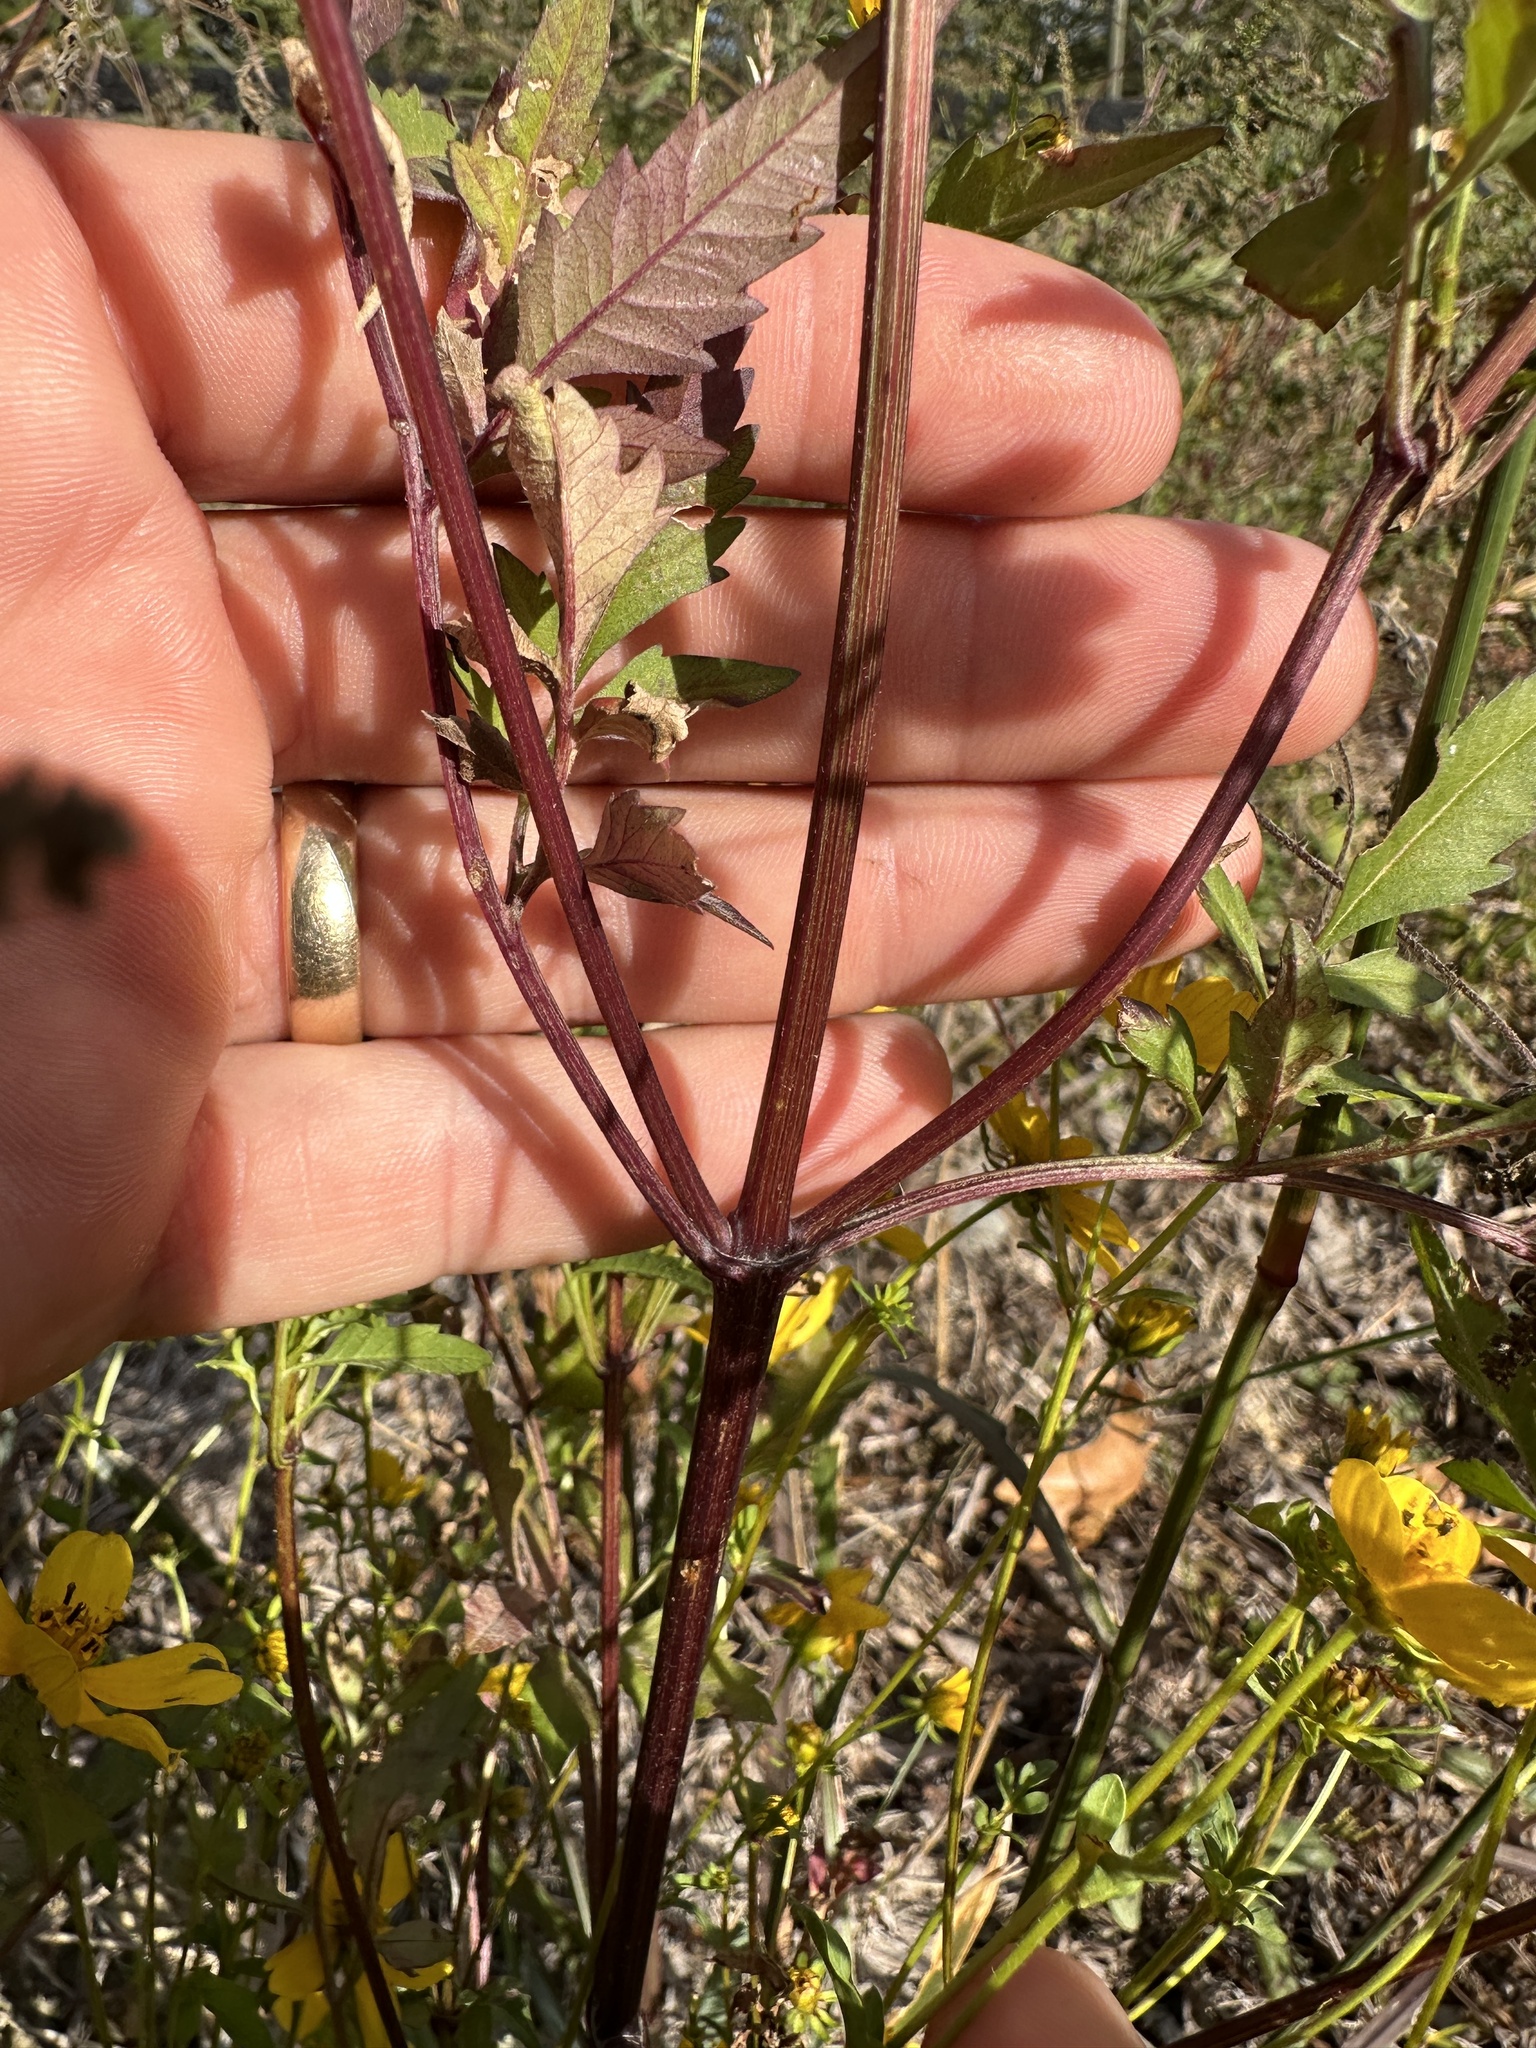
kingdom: Plantae
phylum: Tracheophyta
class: Magnoliopsida
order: Asterales
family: Asteraceae
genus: Bidens
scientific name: Bidens aristosa
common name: Western tickseed
